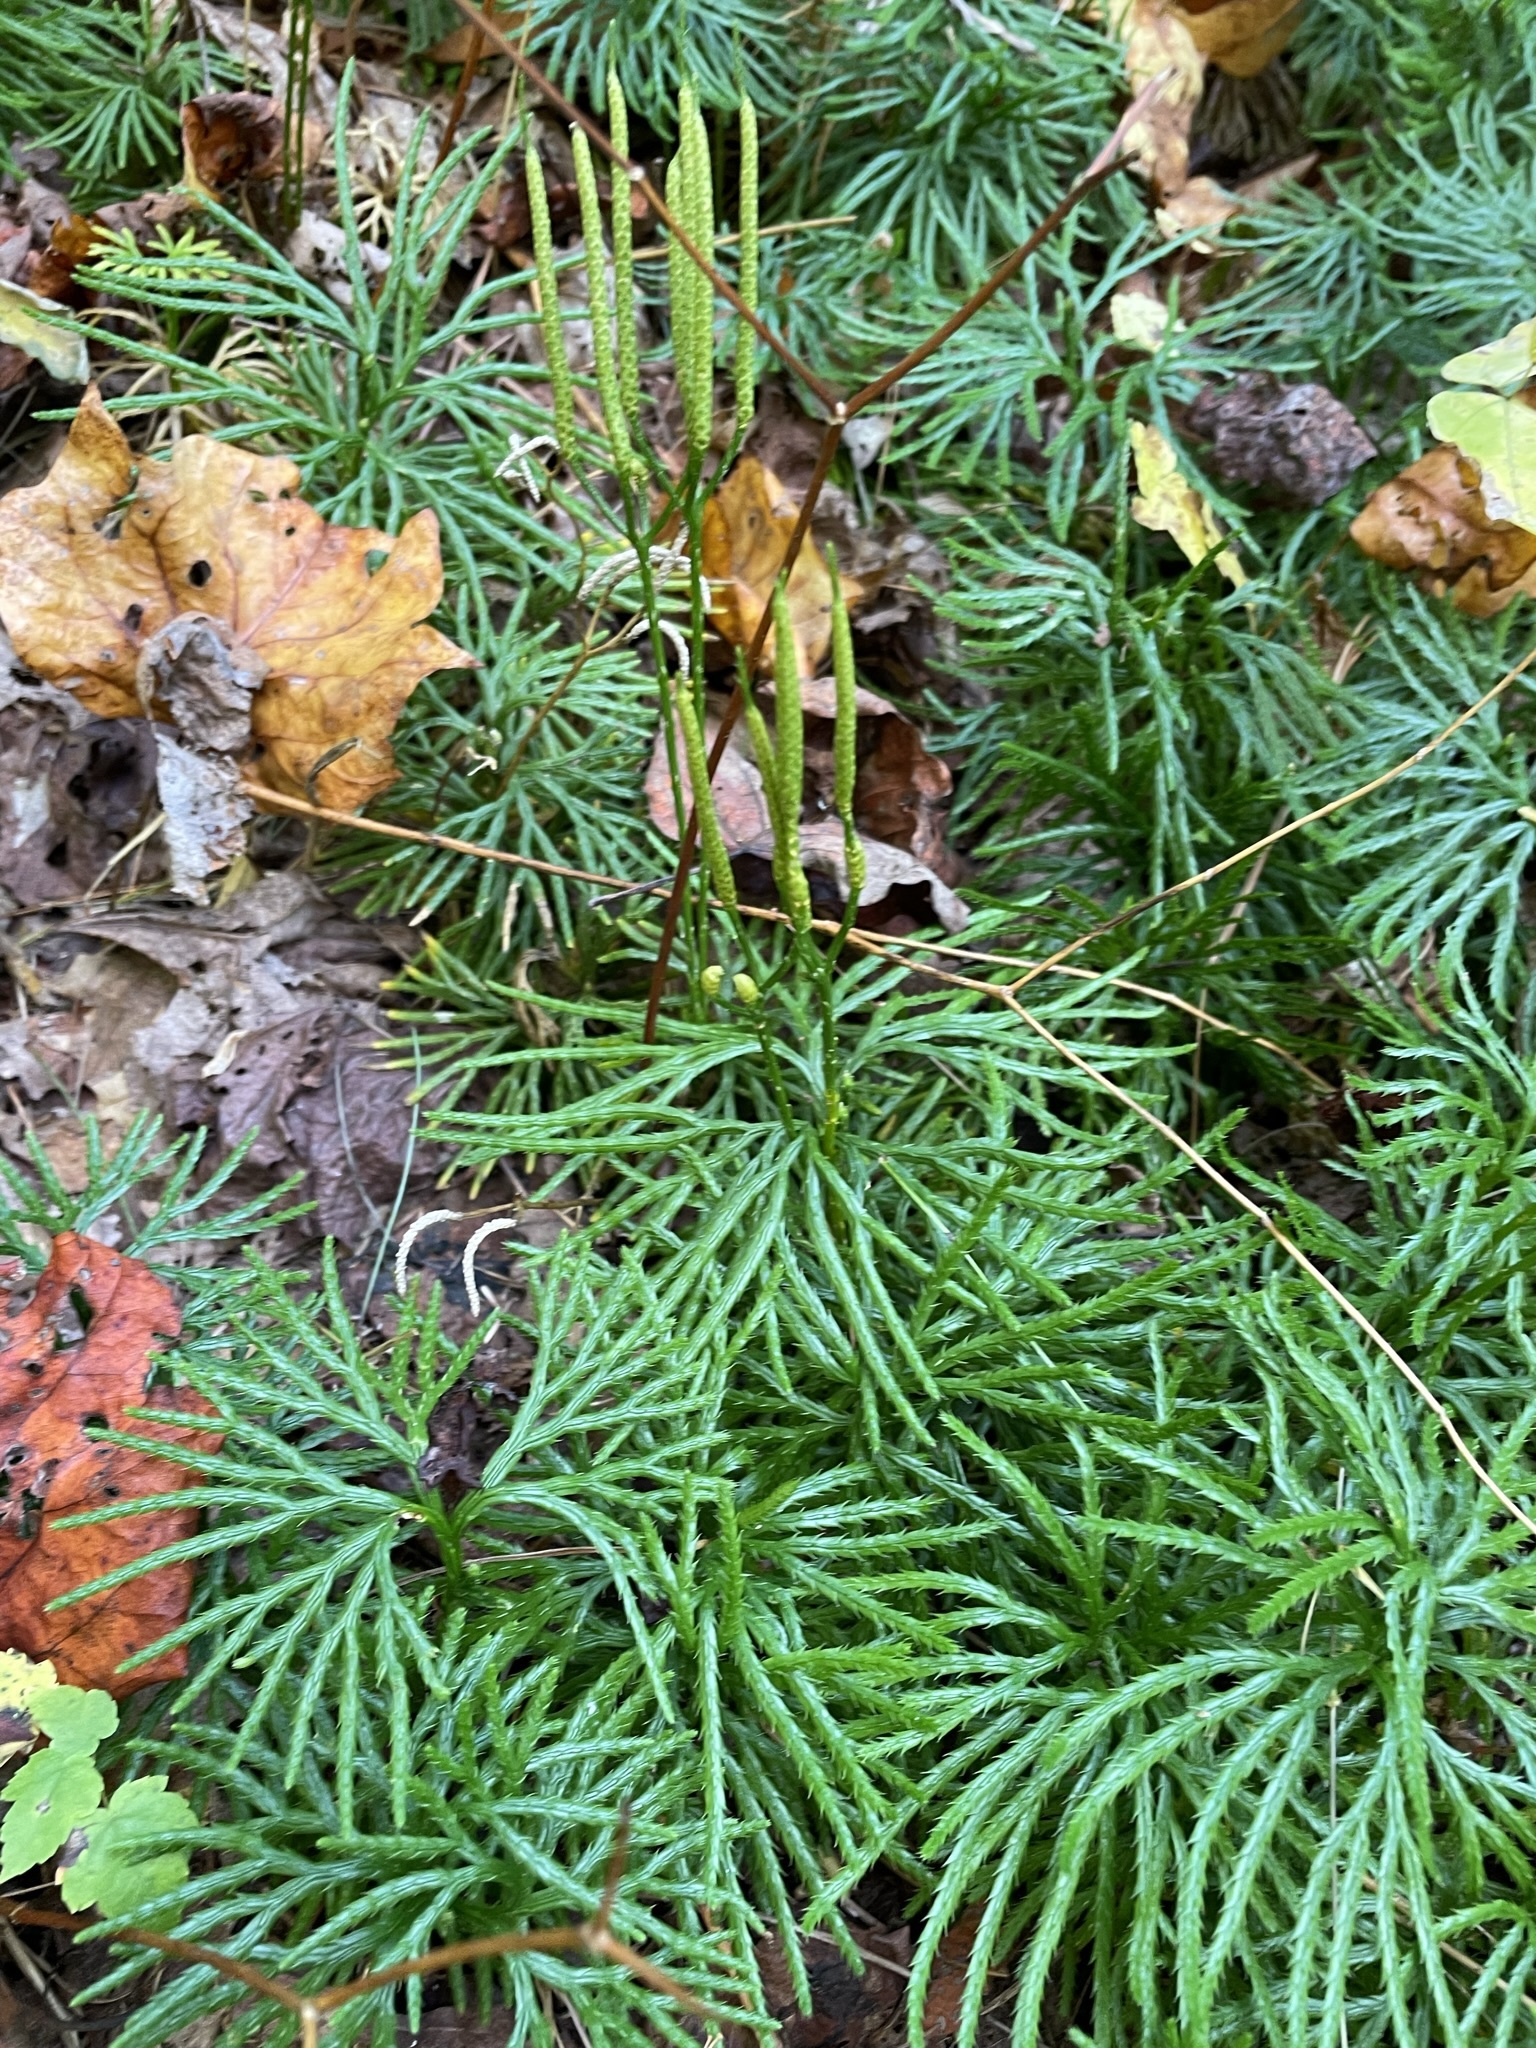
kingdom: Plantae
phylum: Tracheophyta
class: Lycopodiopsida
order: Lycopodiales
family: Lycopodiaceae
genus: Diphasiastrum
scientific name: Diphasiastrum digitatum
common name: Southern running-pine
